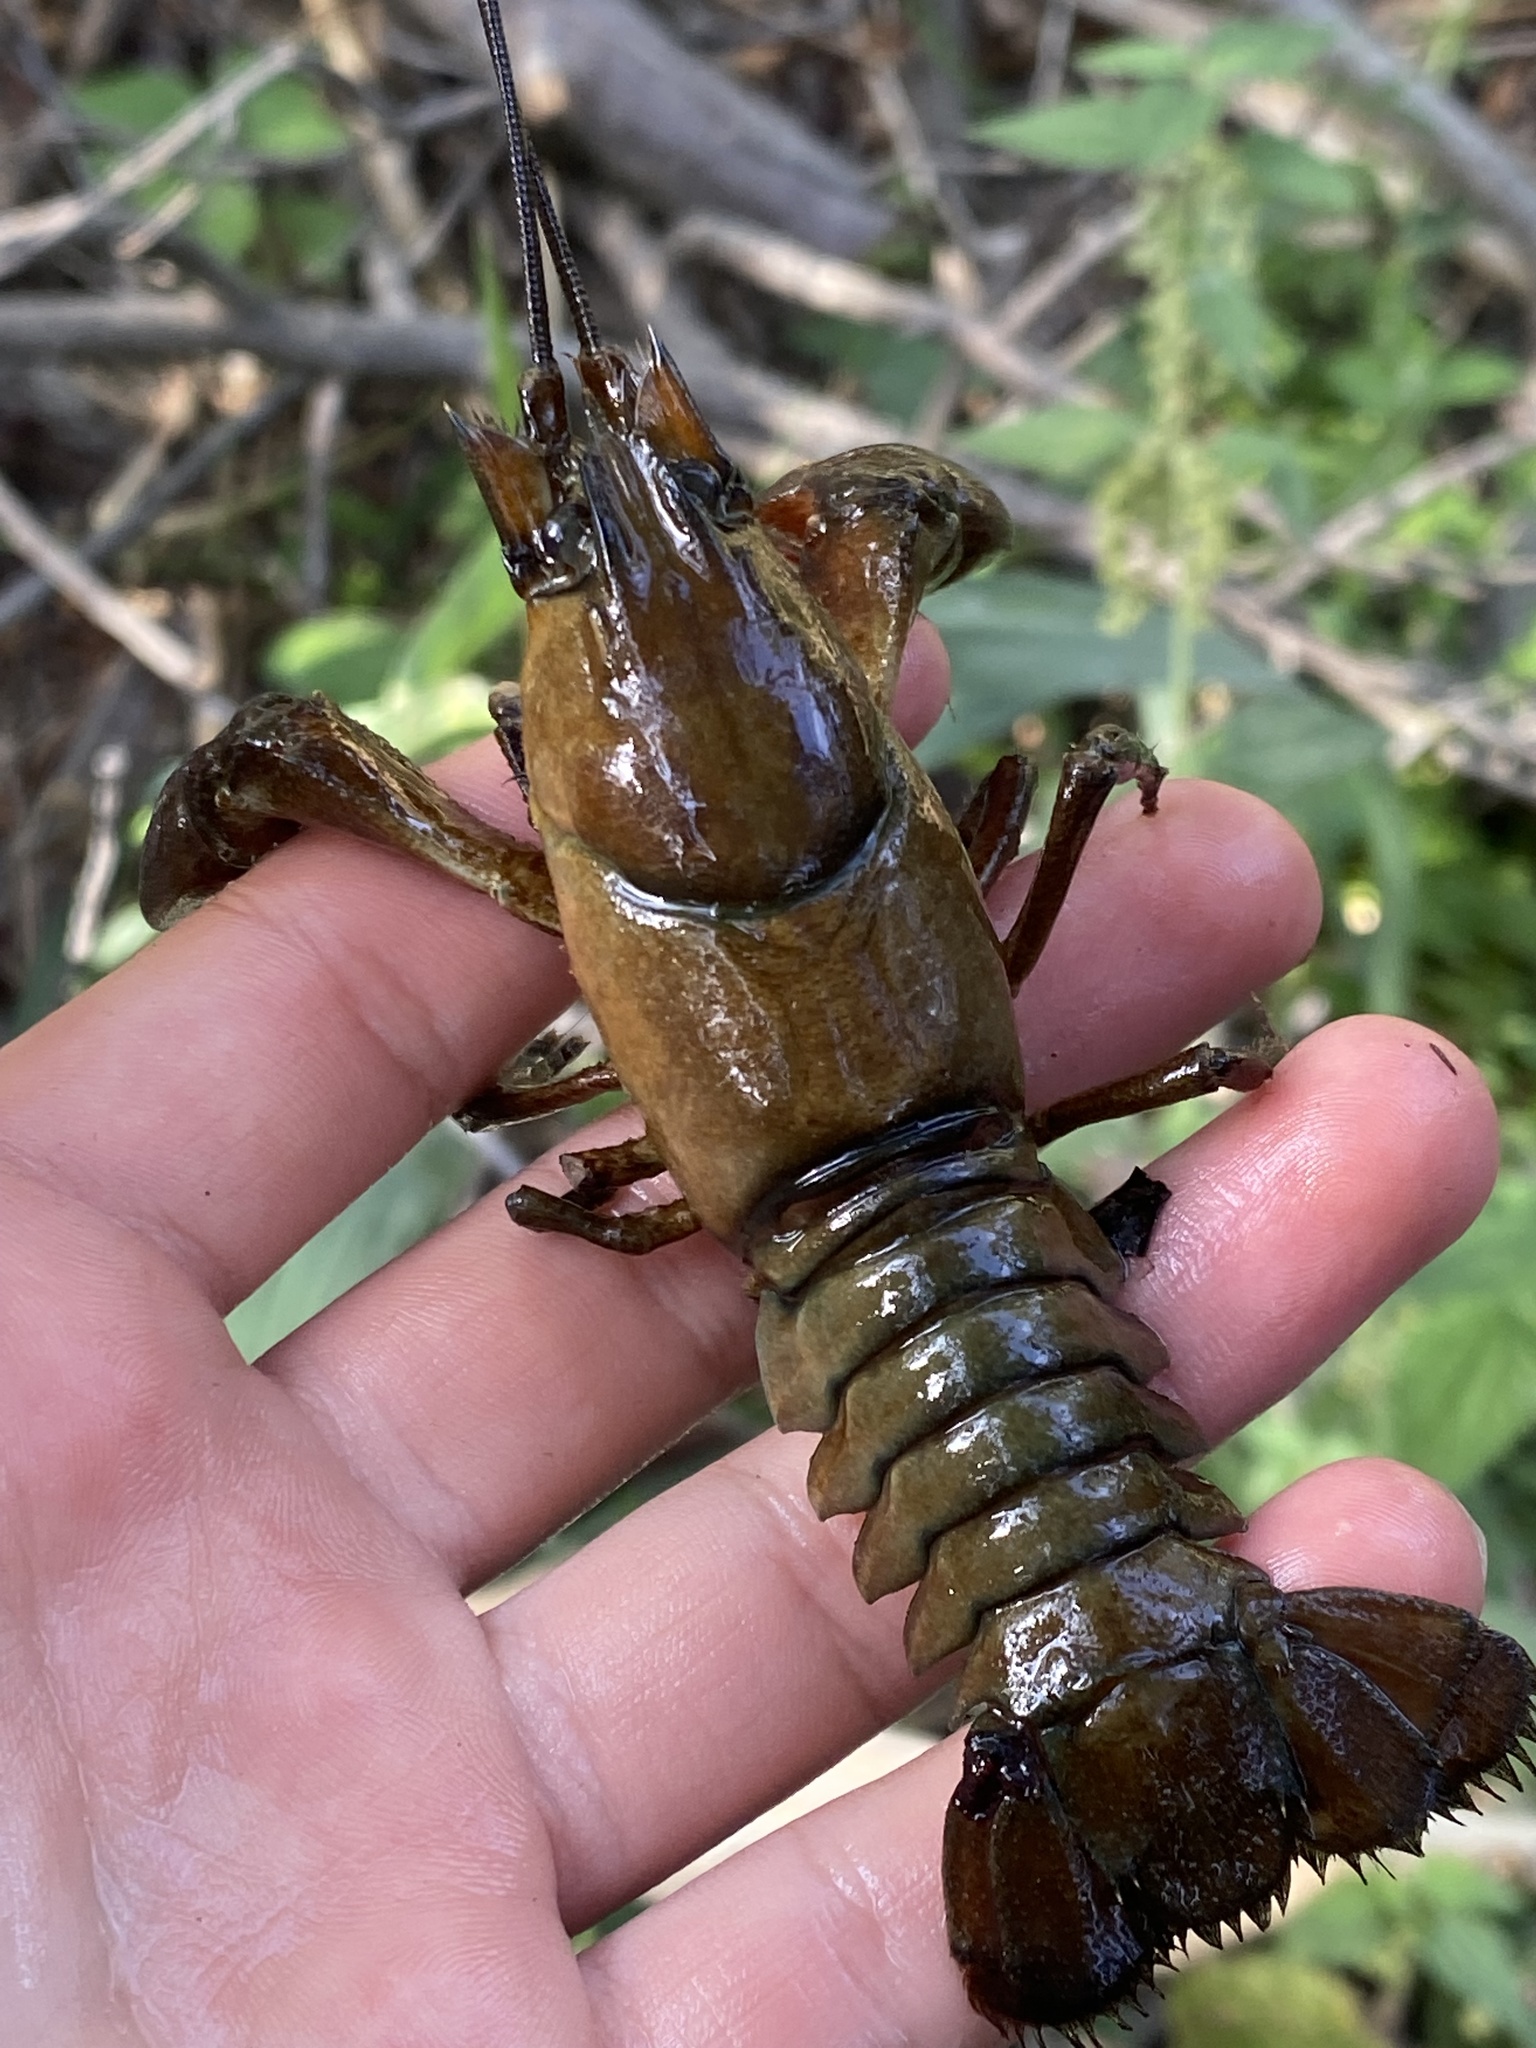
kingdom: Animalia
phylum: Arthropoda
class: Malacostraca
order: Decapoda
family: Astacidae
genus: Pacifastacus
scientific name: Pacifastacus leniusculus
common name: Signal crayfish
